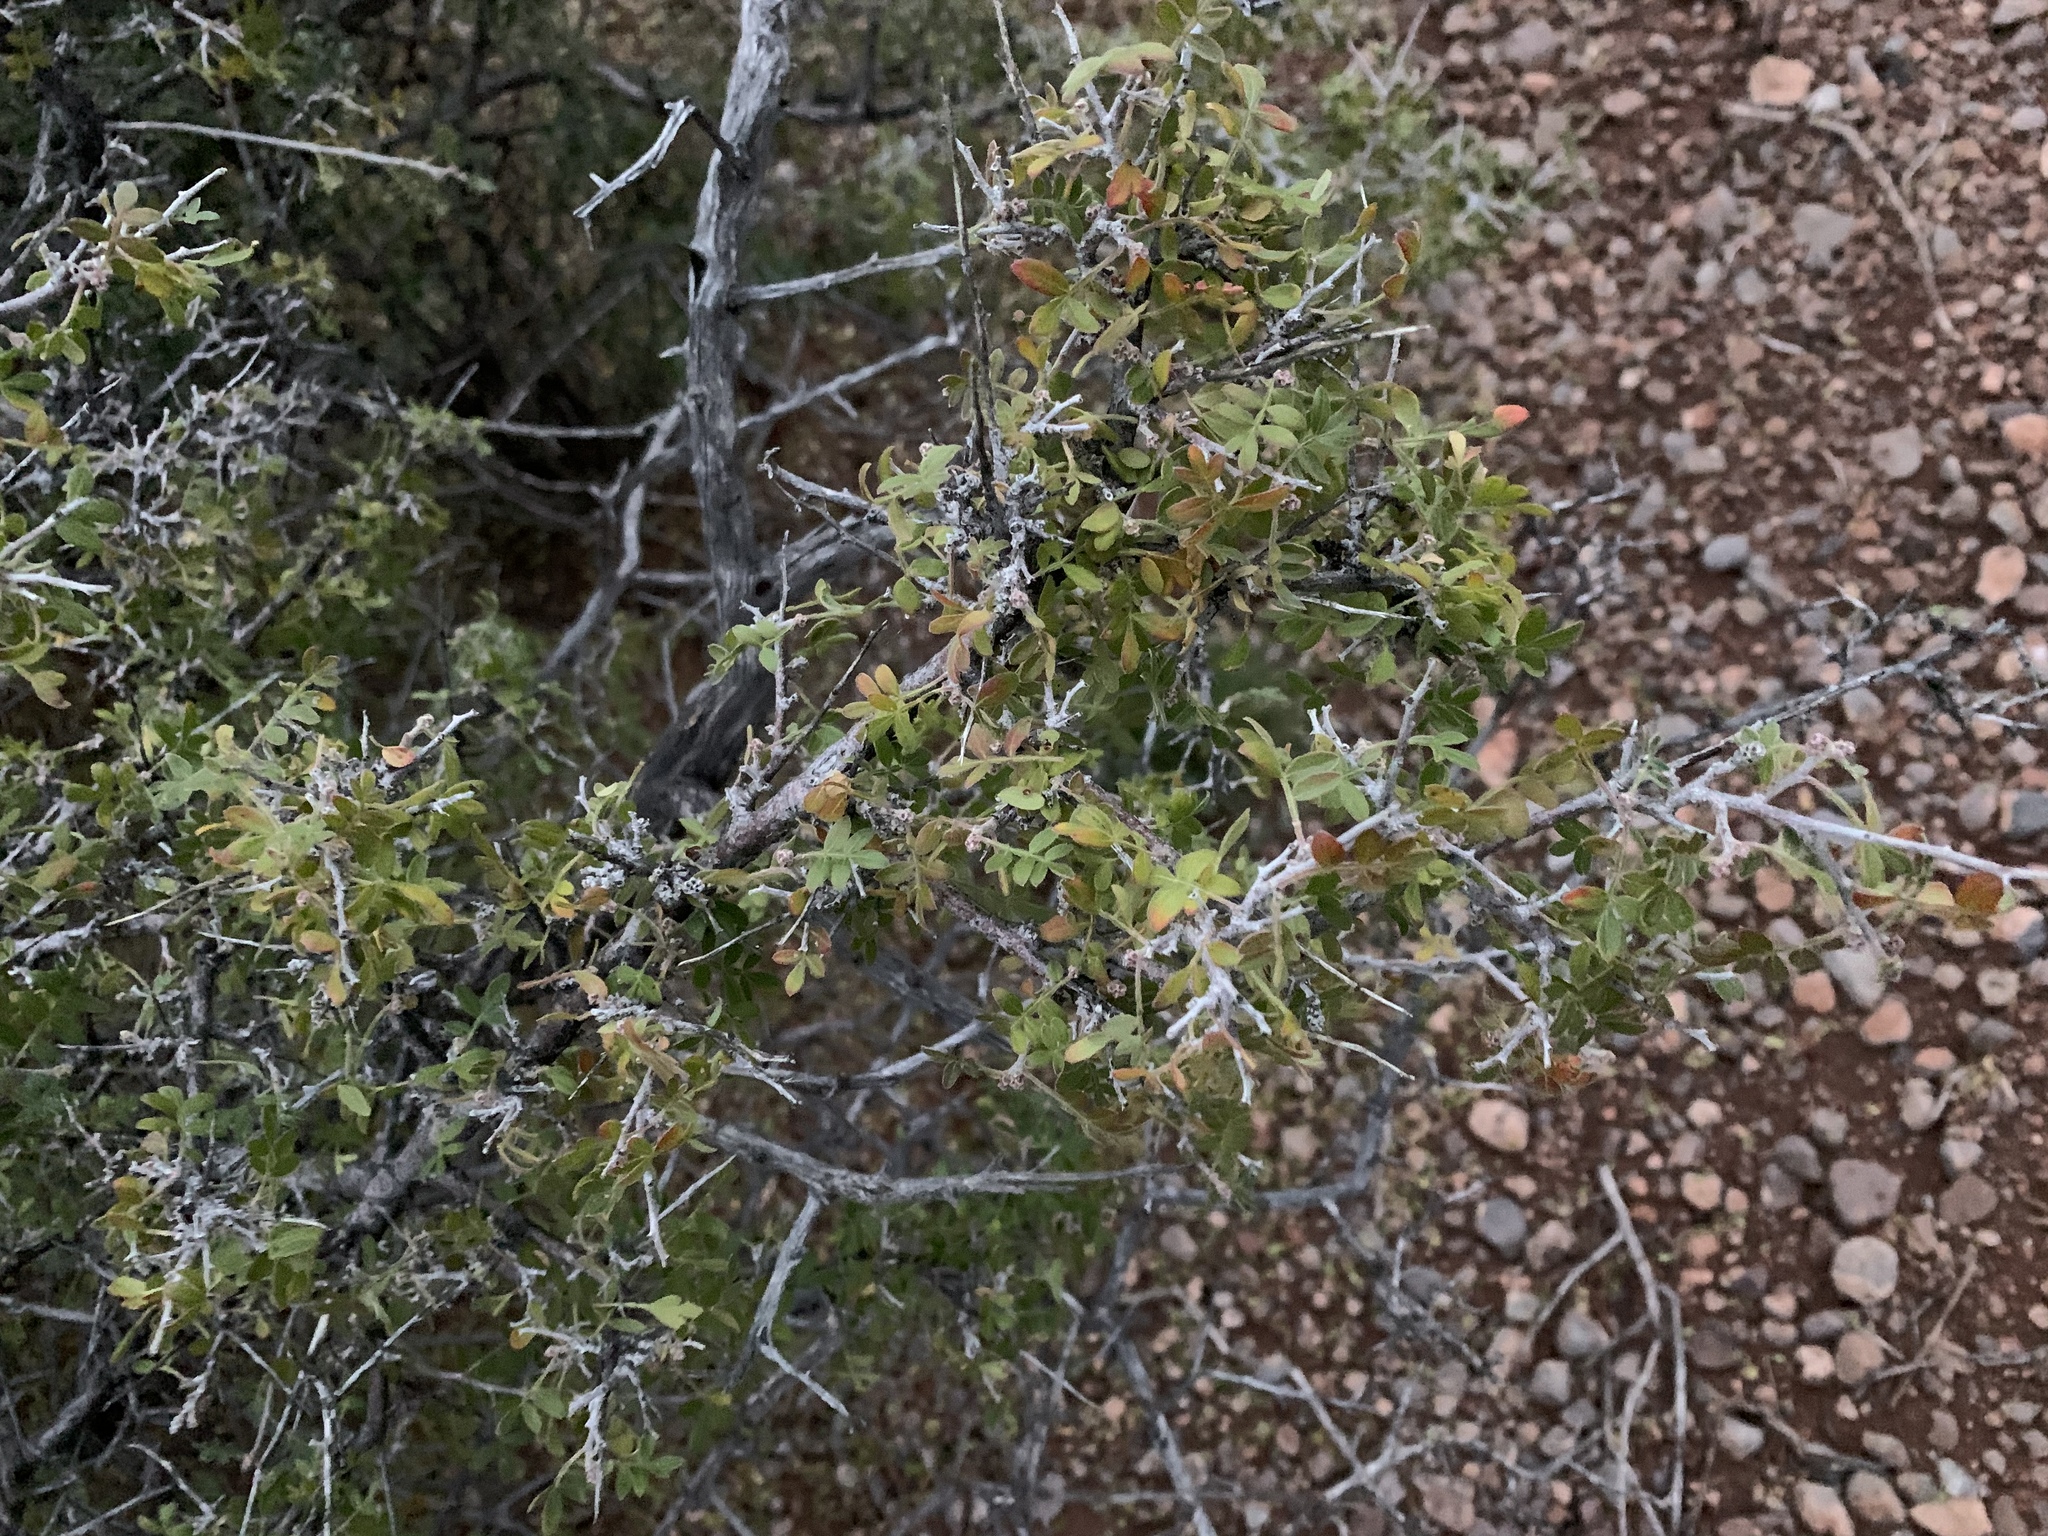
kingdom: Plantae
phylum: Tracheophyta
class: Magnoliopsida
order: Sapindales
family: Anacardiaceae
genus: Rhus
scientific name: Rhus microphylla
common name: Desert sumac
